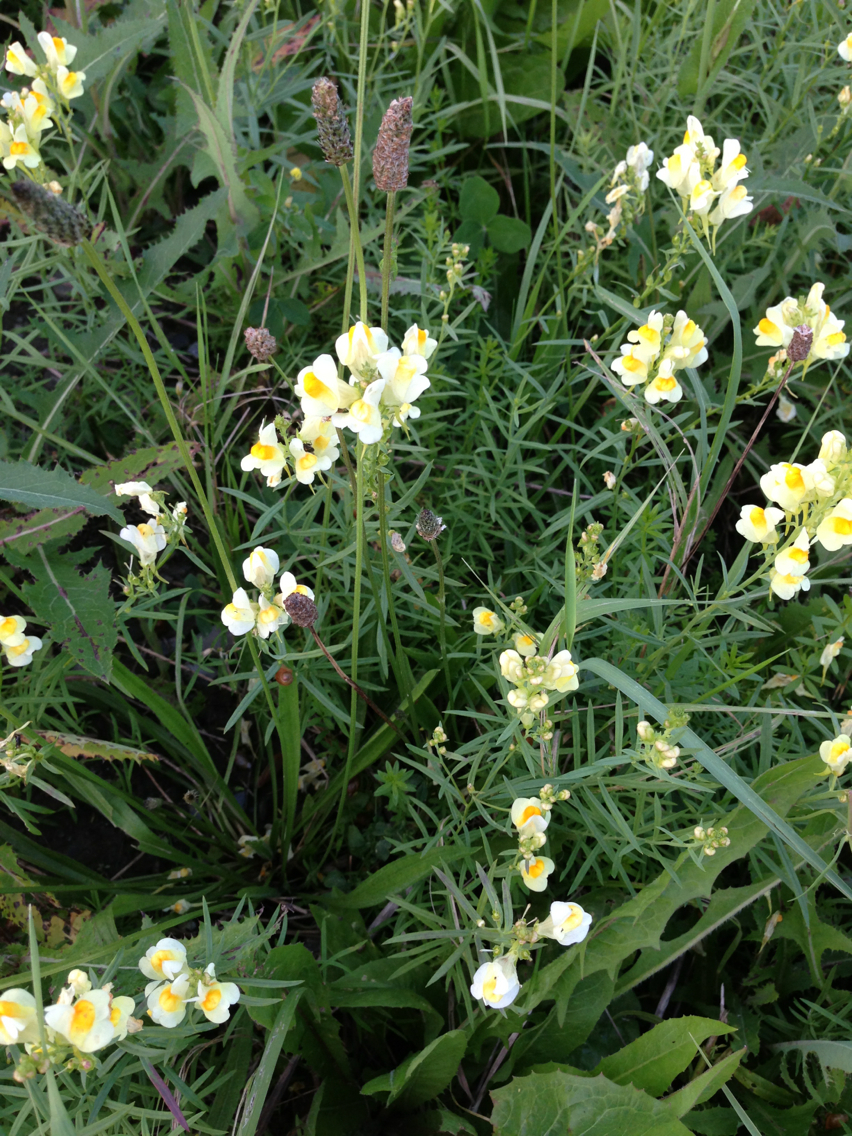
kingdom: Plantae
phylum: Tracheophyta
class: Magnoliopsida
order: Lamiales
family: Plantaginaceae
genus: Linaria
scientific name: Linaria vulgaris
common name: Butter and eggs
